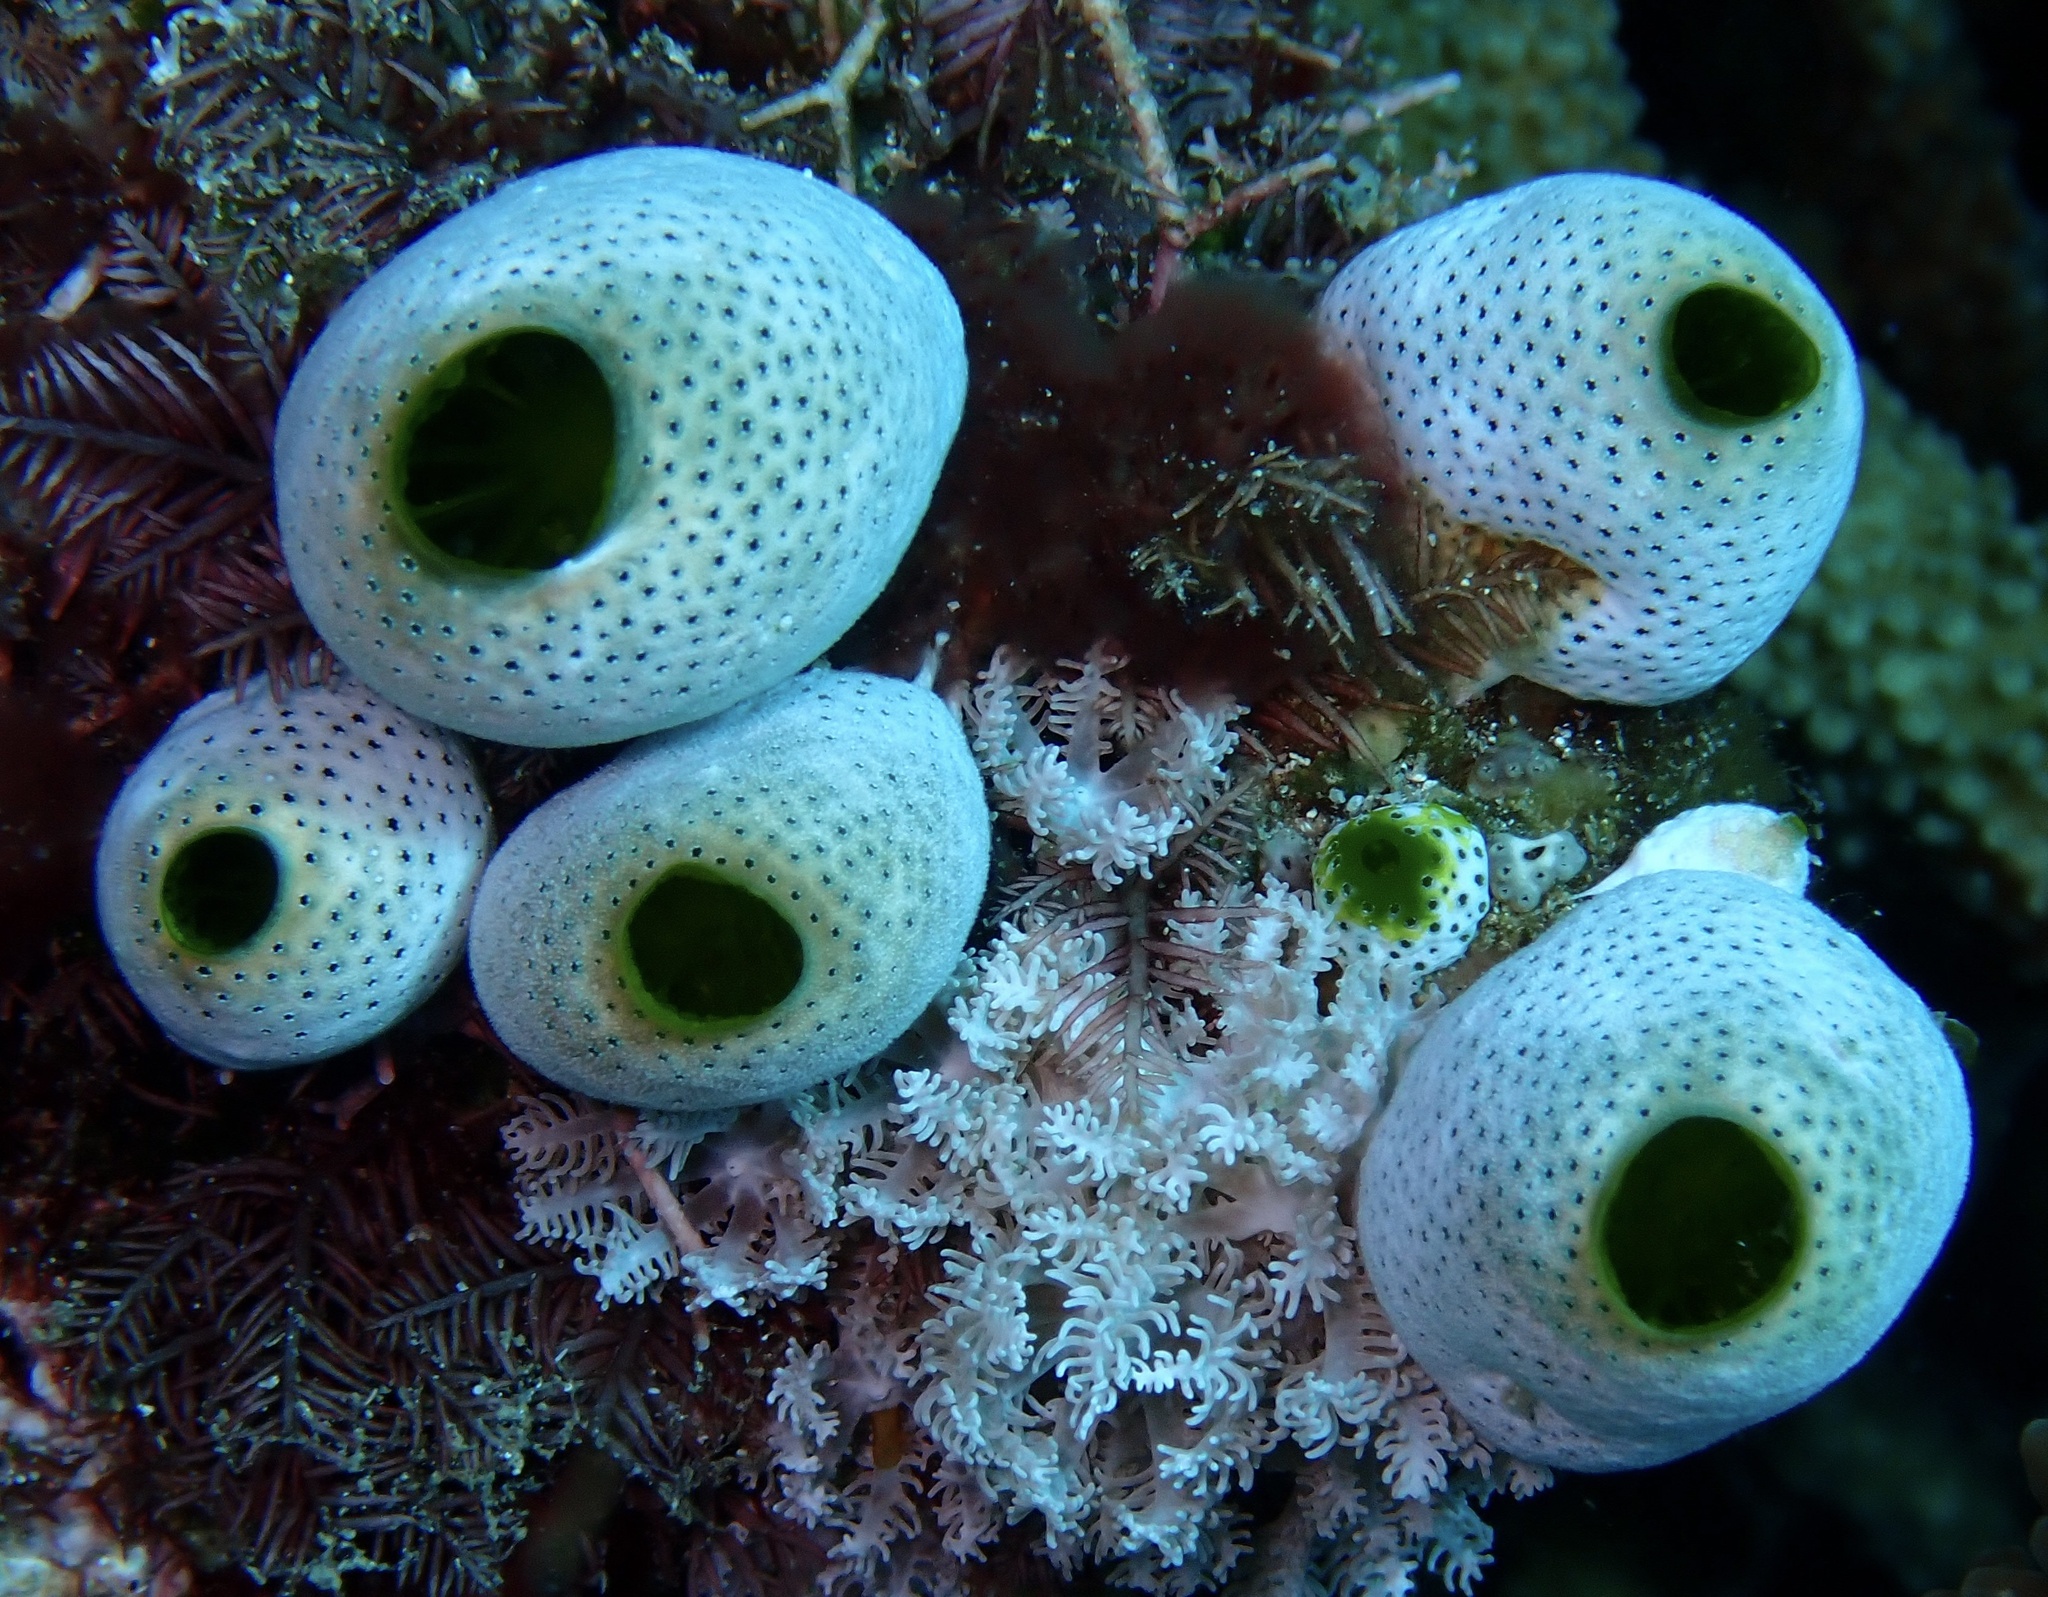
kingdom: Animalia
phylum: Chordata
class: Ascidiacea
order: Aplousobranchia
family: Didemnidae
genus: Didemnum
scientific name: Didemnum molle
